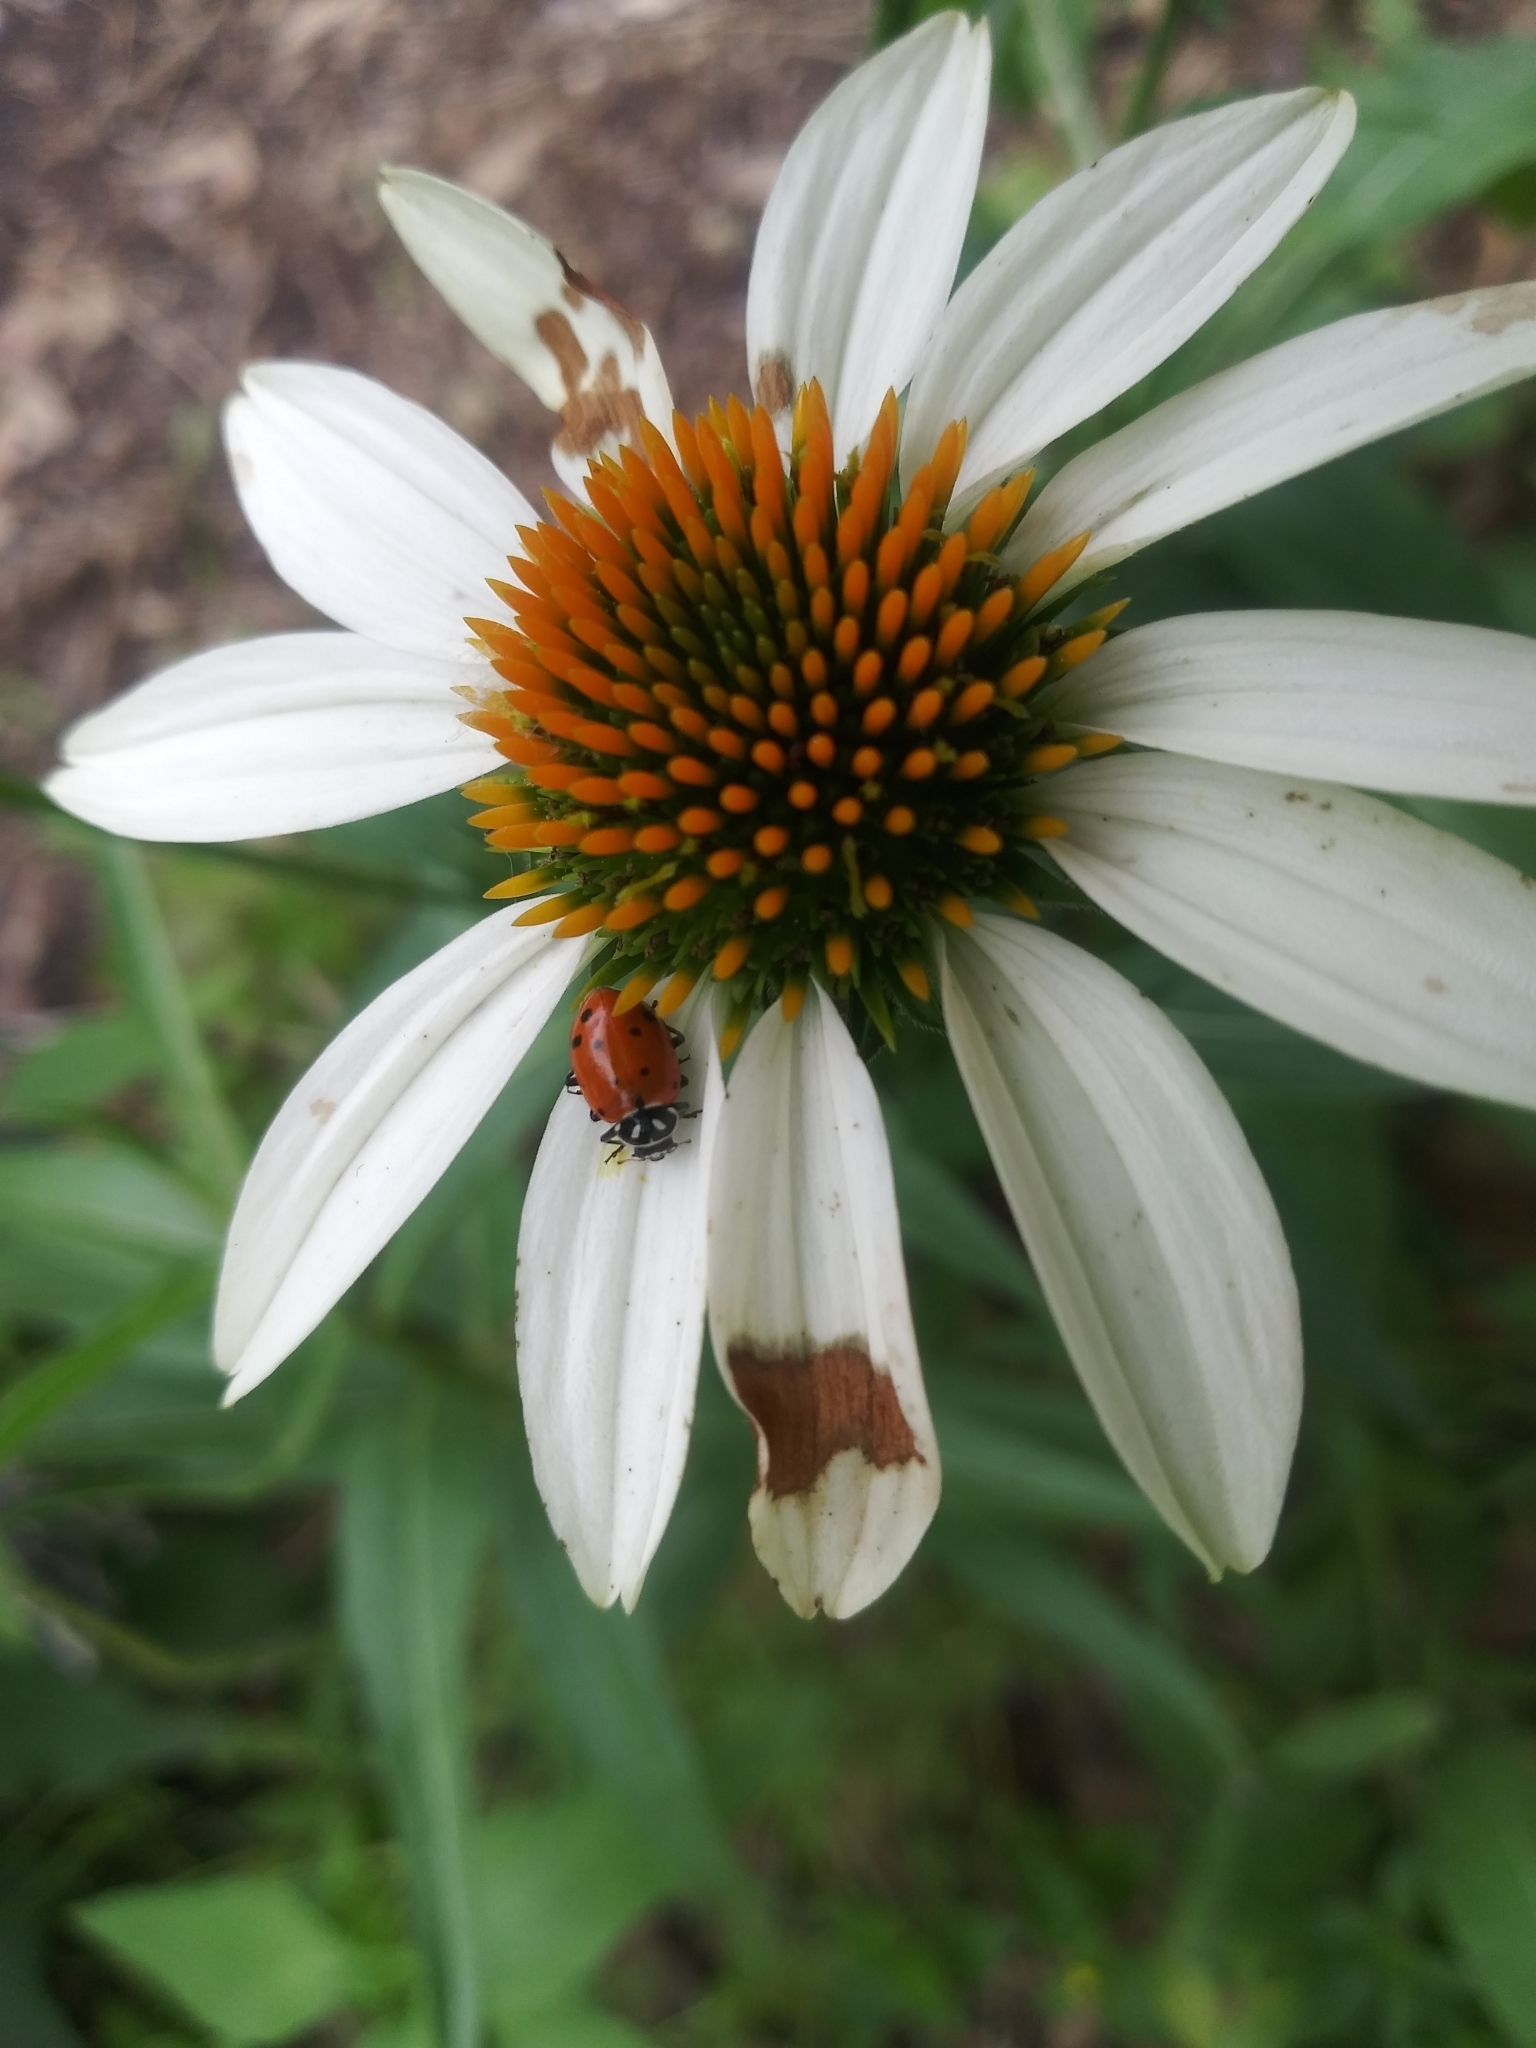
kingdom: Animalia
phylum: Arthropoda
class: Insecta
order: Coleoptera
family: Coccinellidae
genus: Hippodamia
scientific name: Hippodamia convergens
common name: Convergent lady beetle
